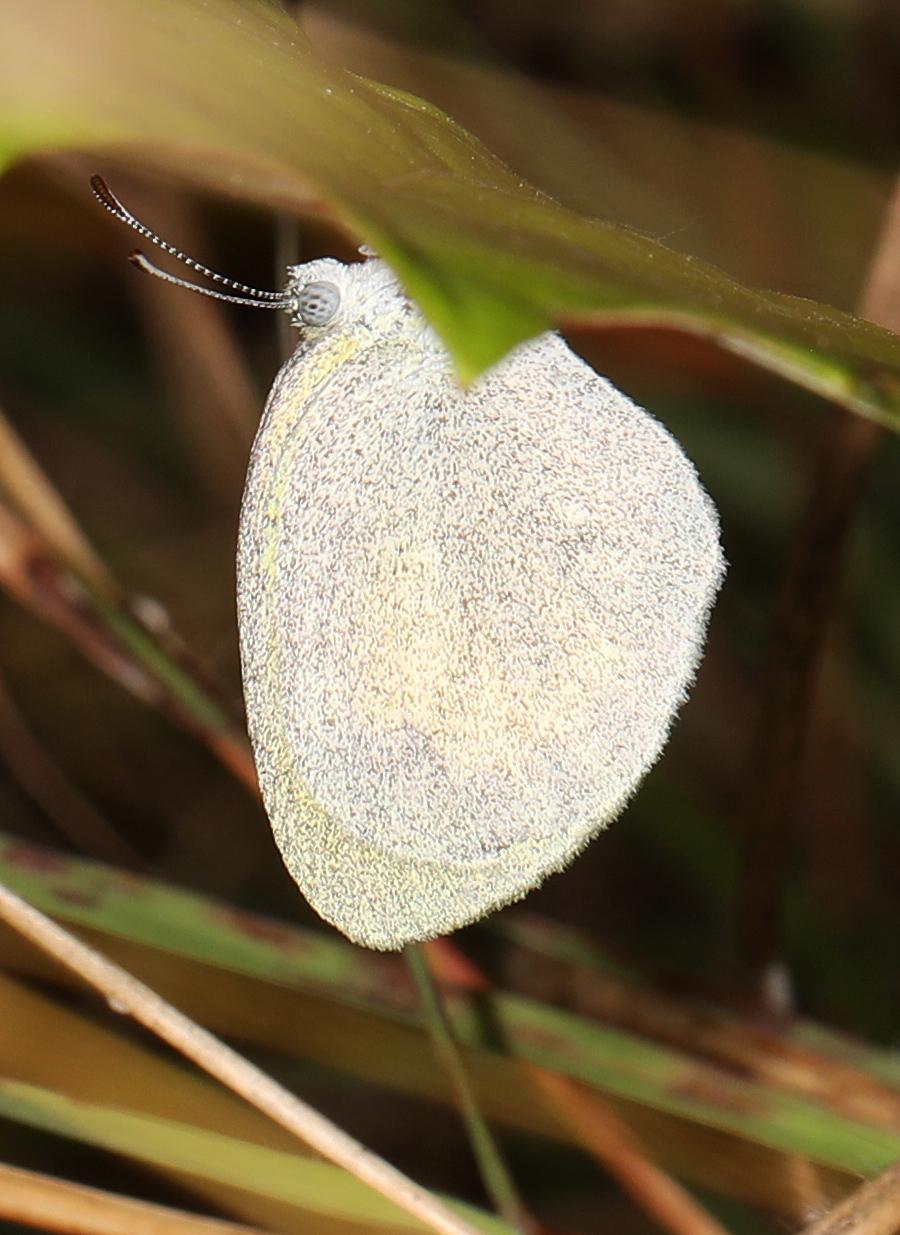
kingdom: Animalia
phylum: Arthropoda
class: Insecta
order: Lepidoptera
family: Pieridae
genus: Eurema
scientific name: Eurema daira
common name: Barred sulphur
